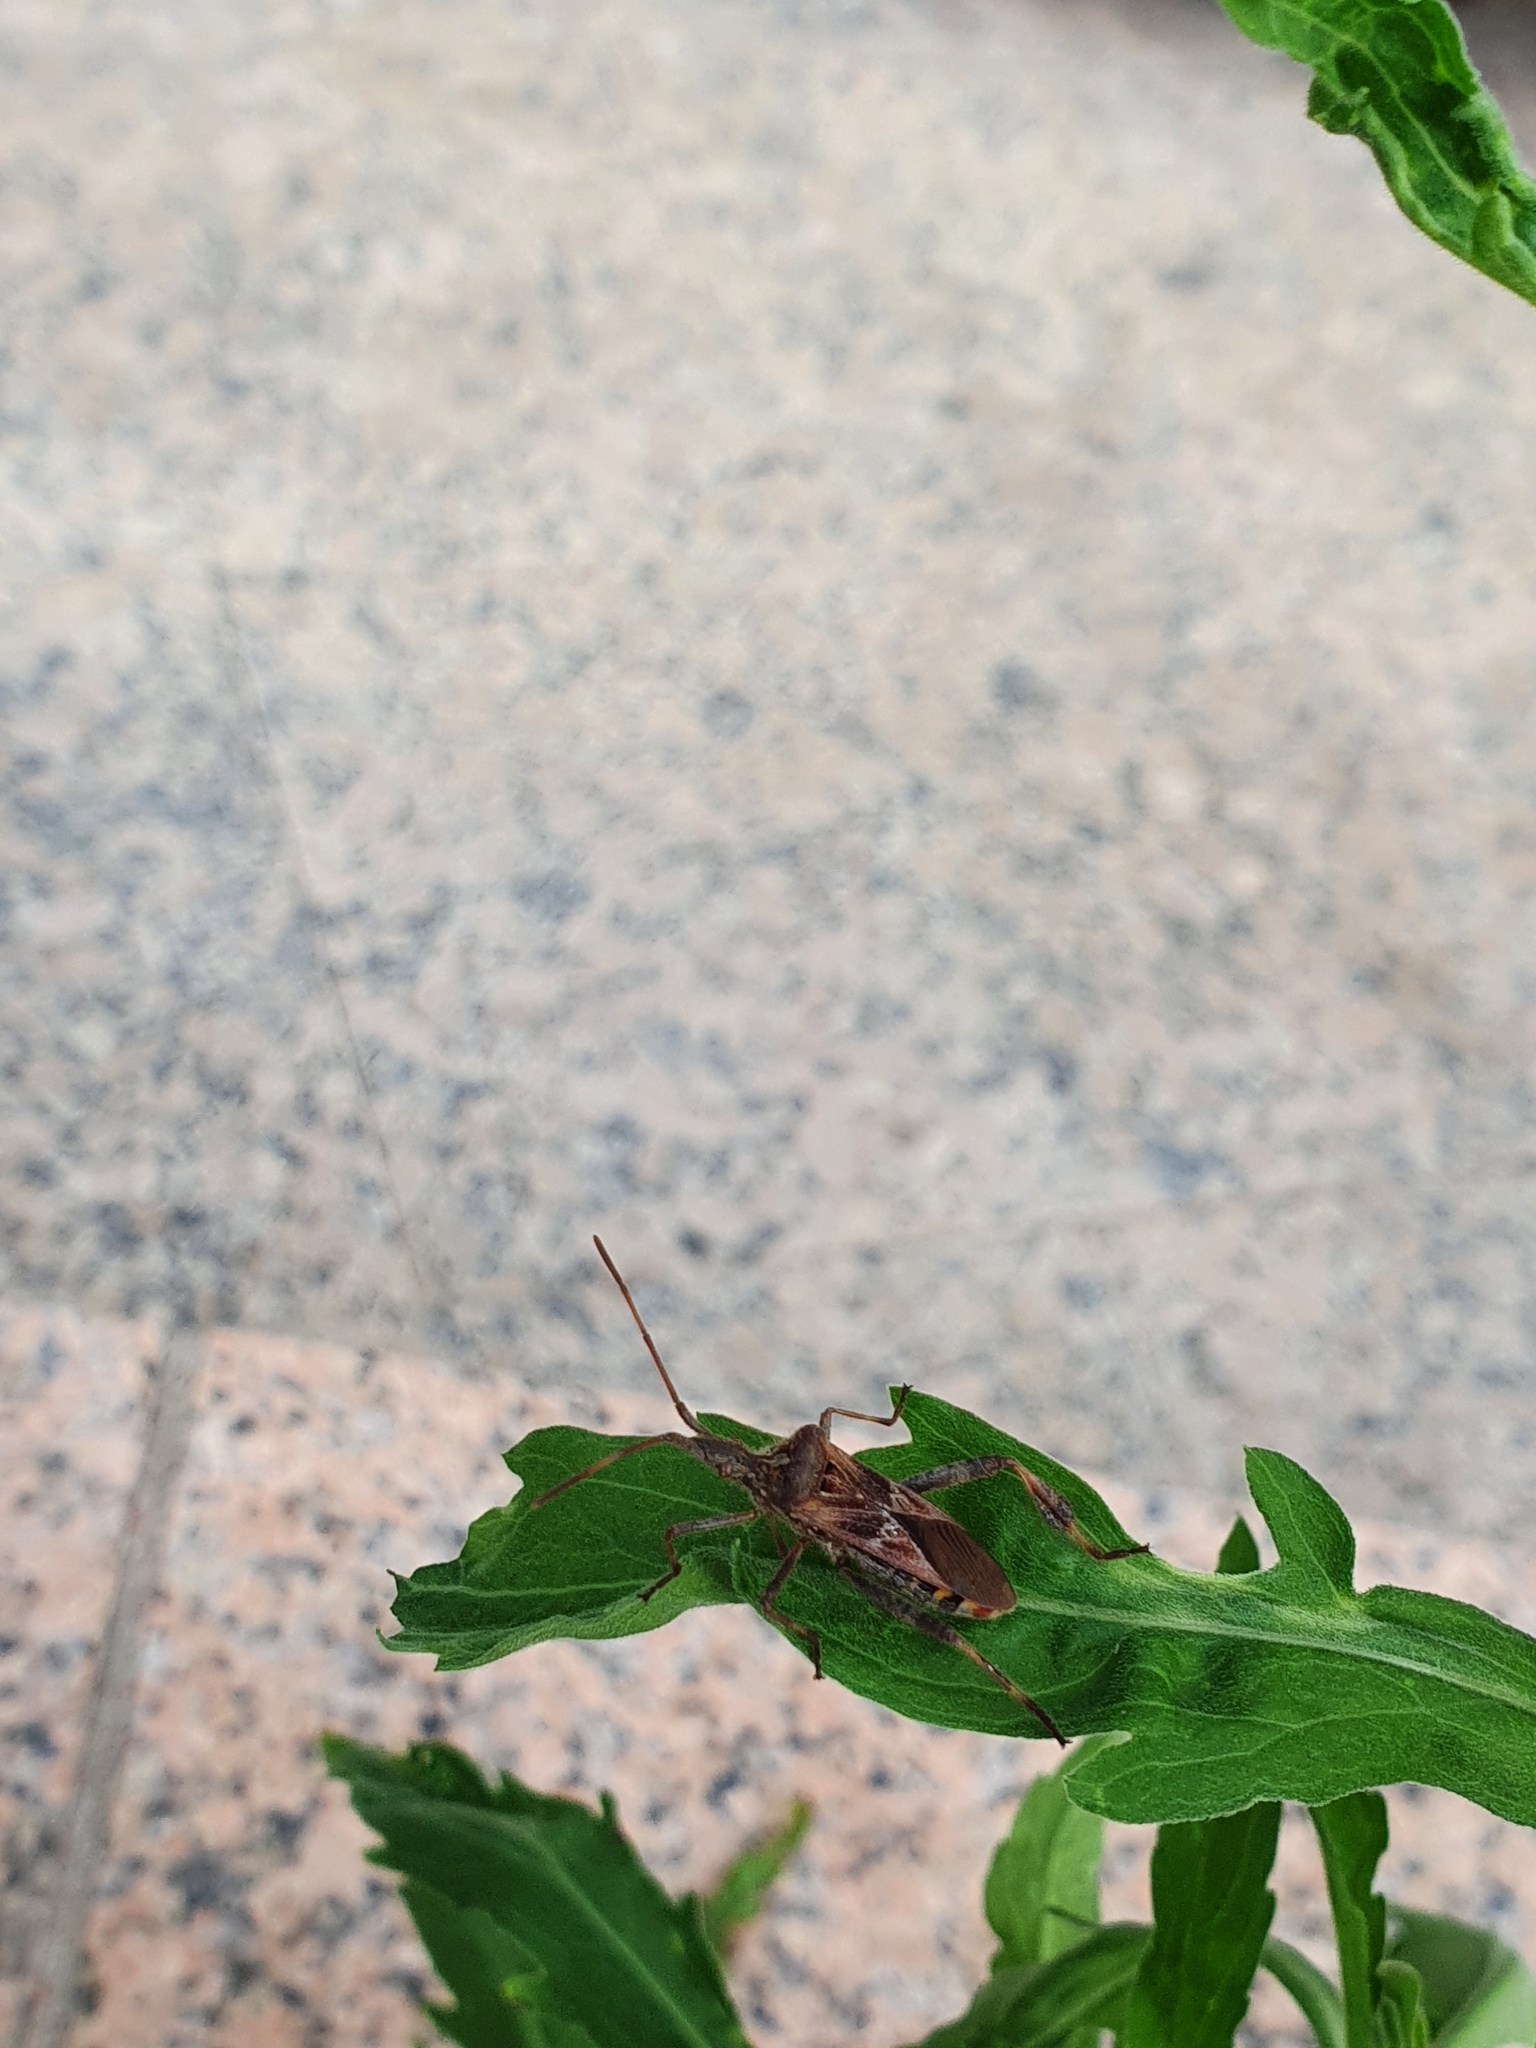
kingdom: Animalia
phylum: Arthropoda
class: Insecta
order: Hemiptera
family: Coreidae
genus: Leptoglossus
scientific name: Leptoglossus occidentalis
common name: Western conifer-seed bug
